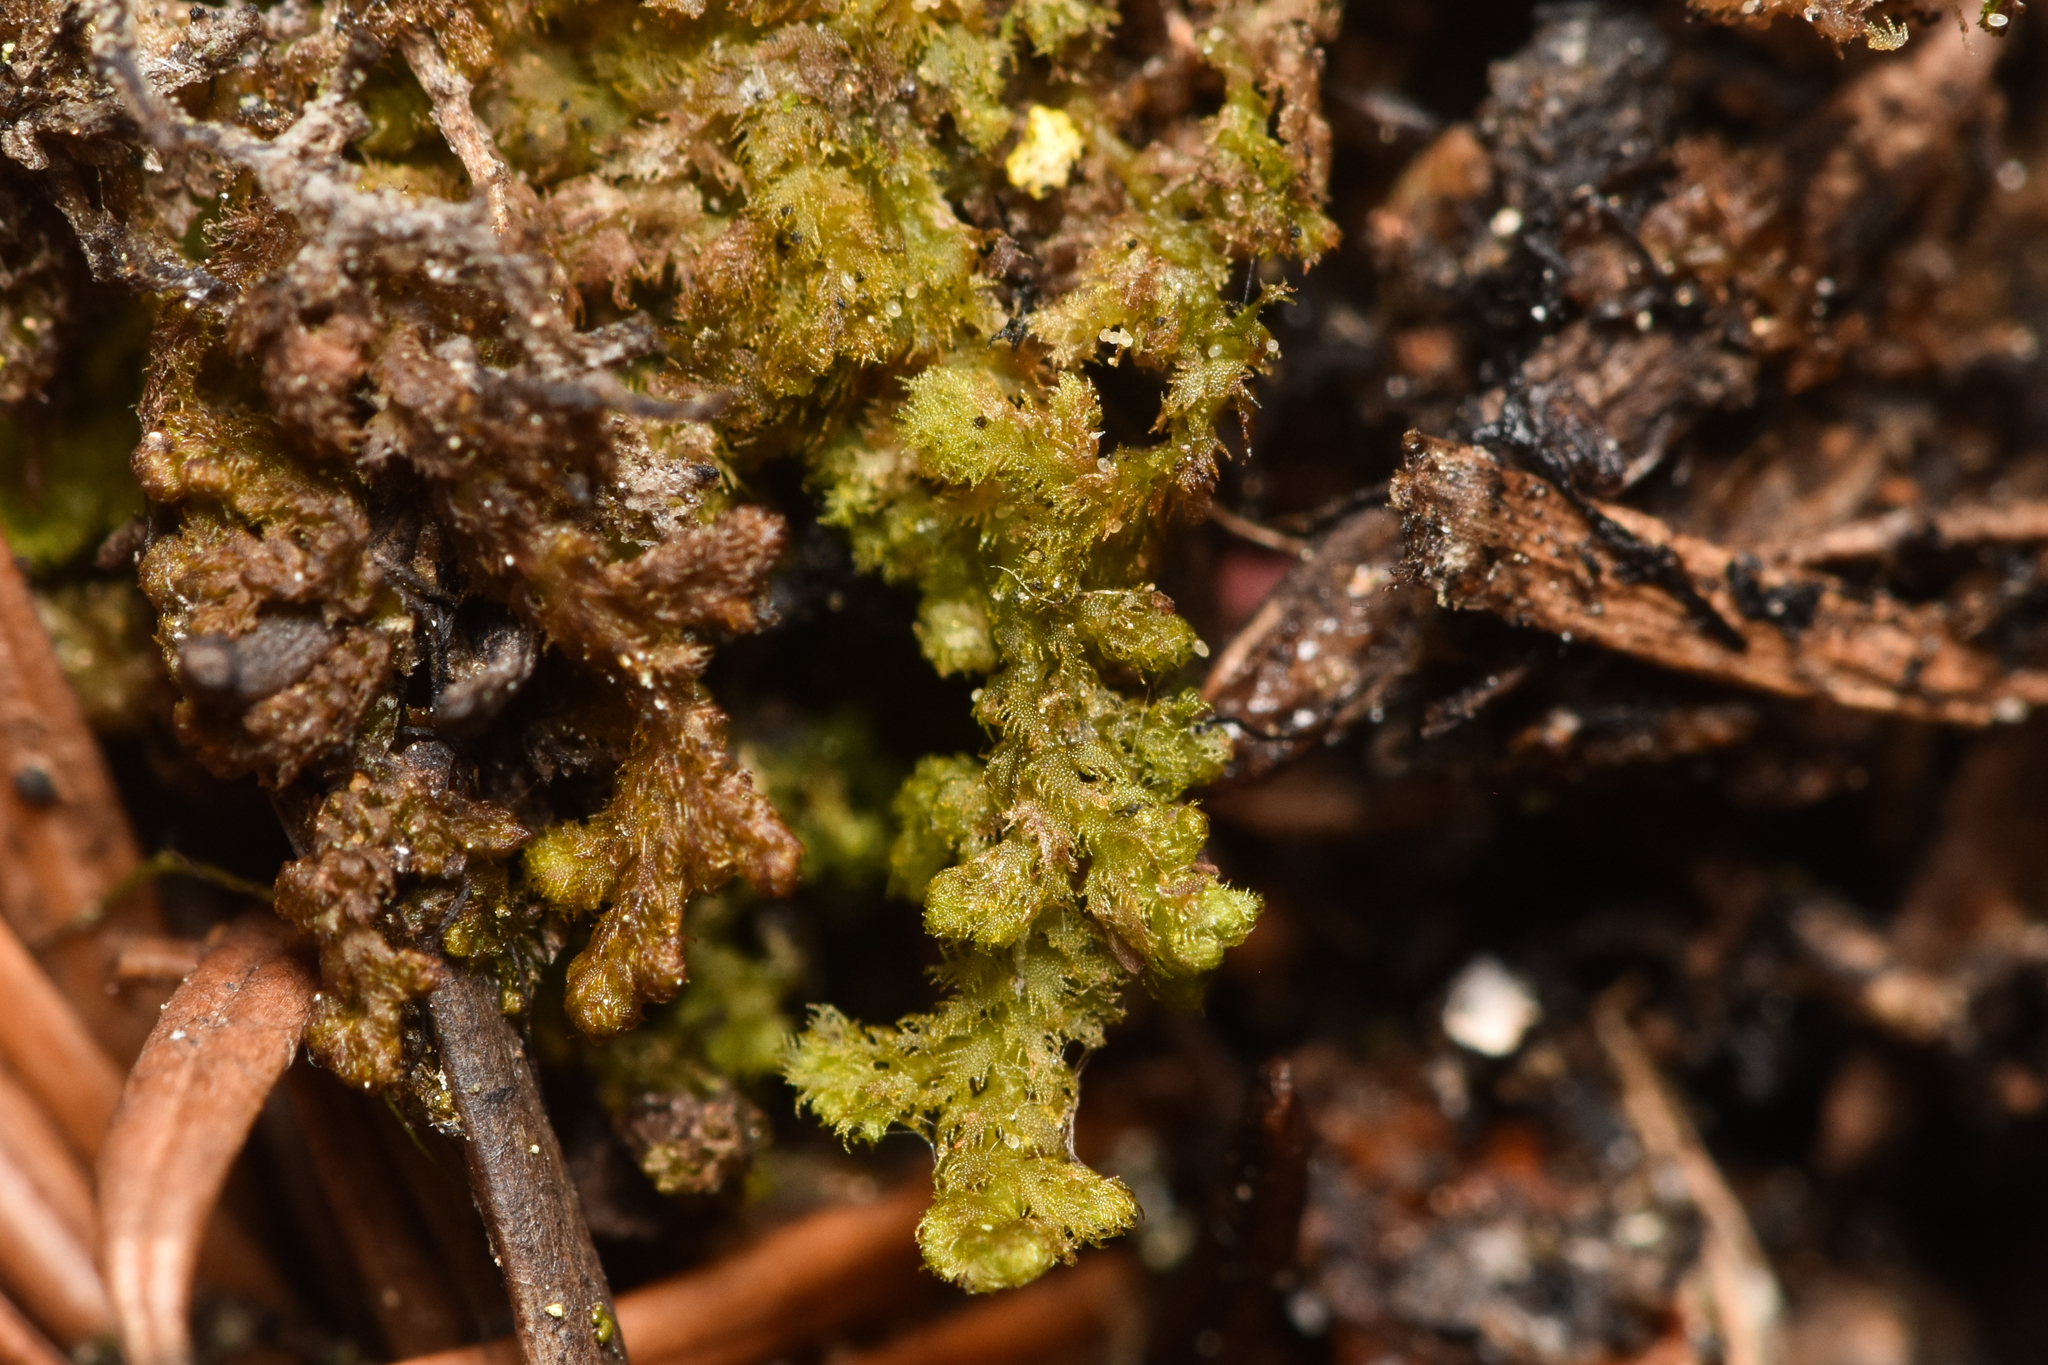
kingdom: Plantae
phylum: Marchantiophyta
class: Jungermanniopsida
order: Ptilidiales
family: Ptilidiaceae
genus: Ptilidium
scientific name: Ptilidium pulcherrimum
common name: Tree fringewort
